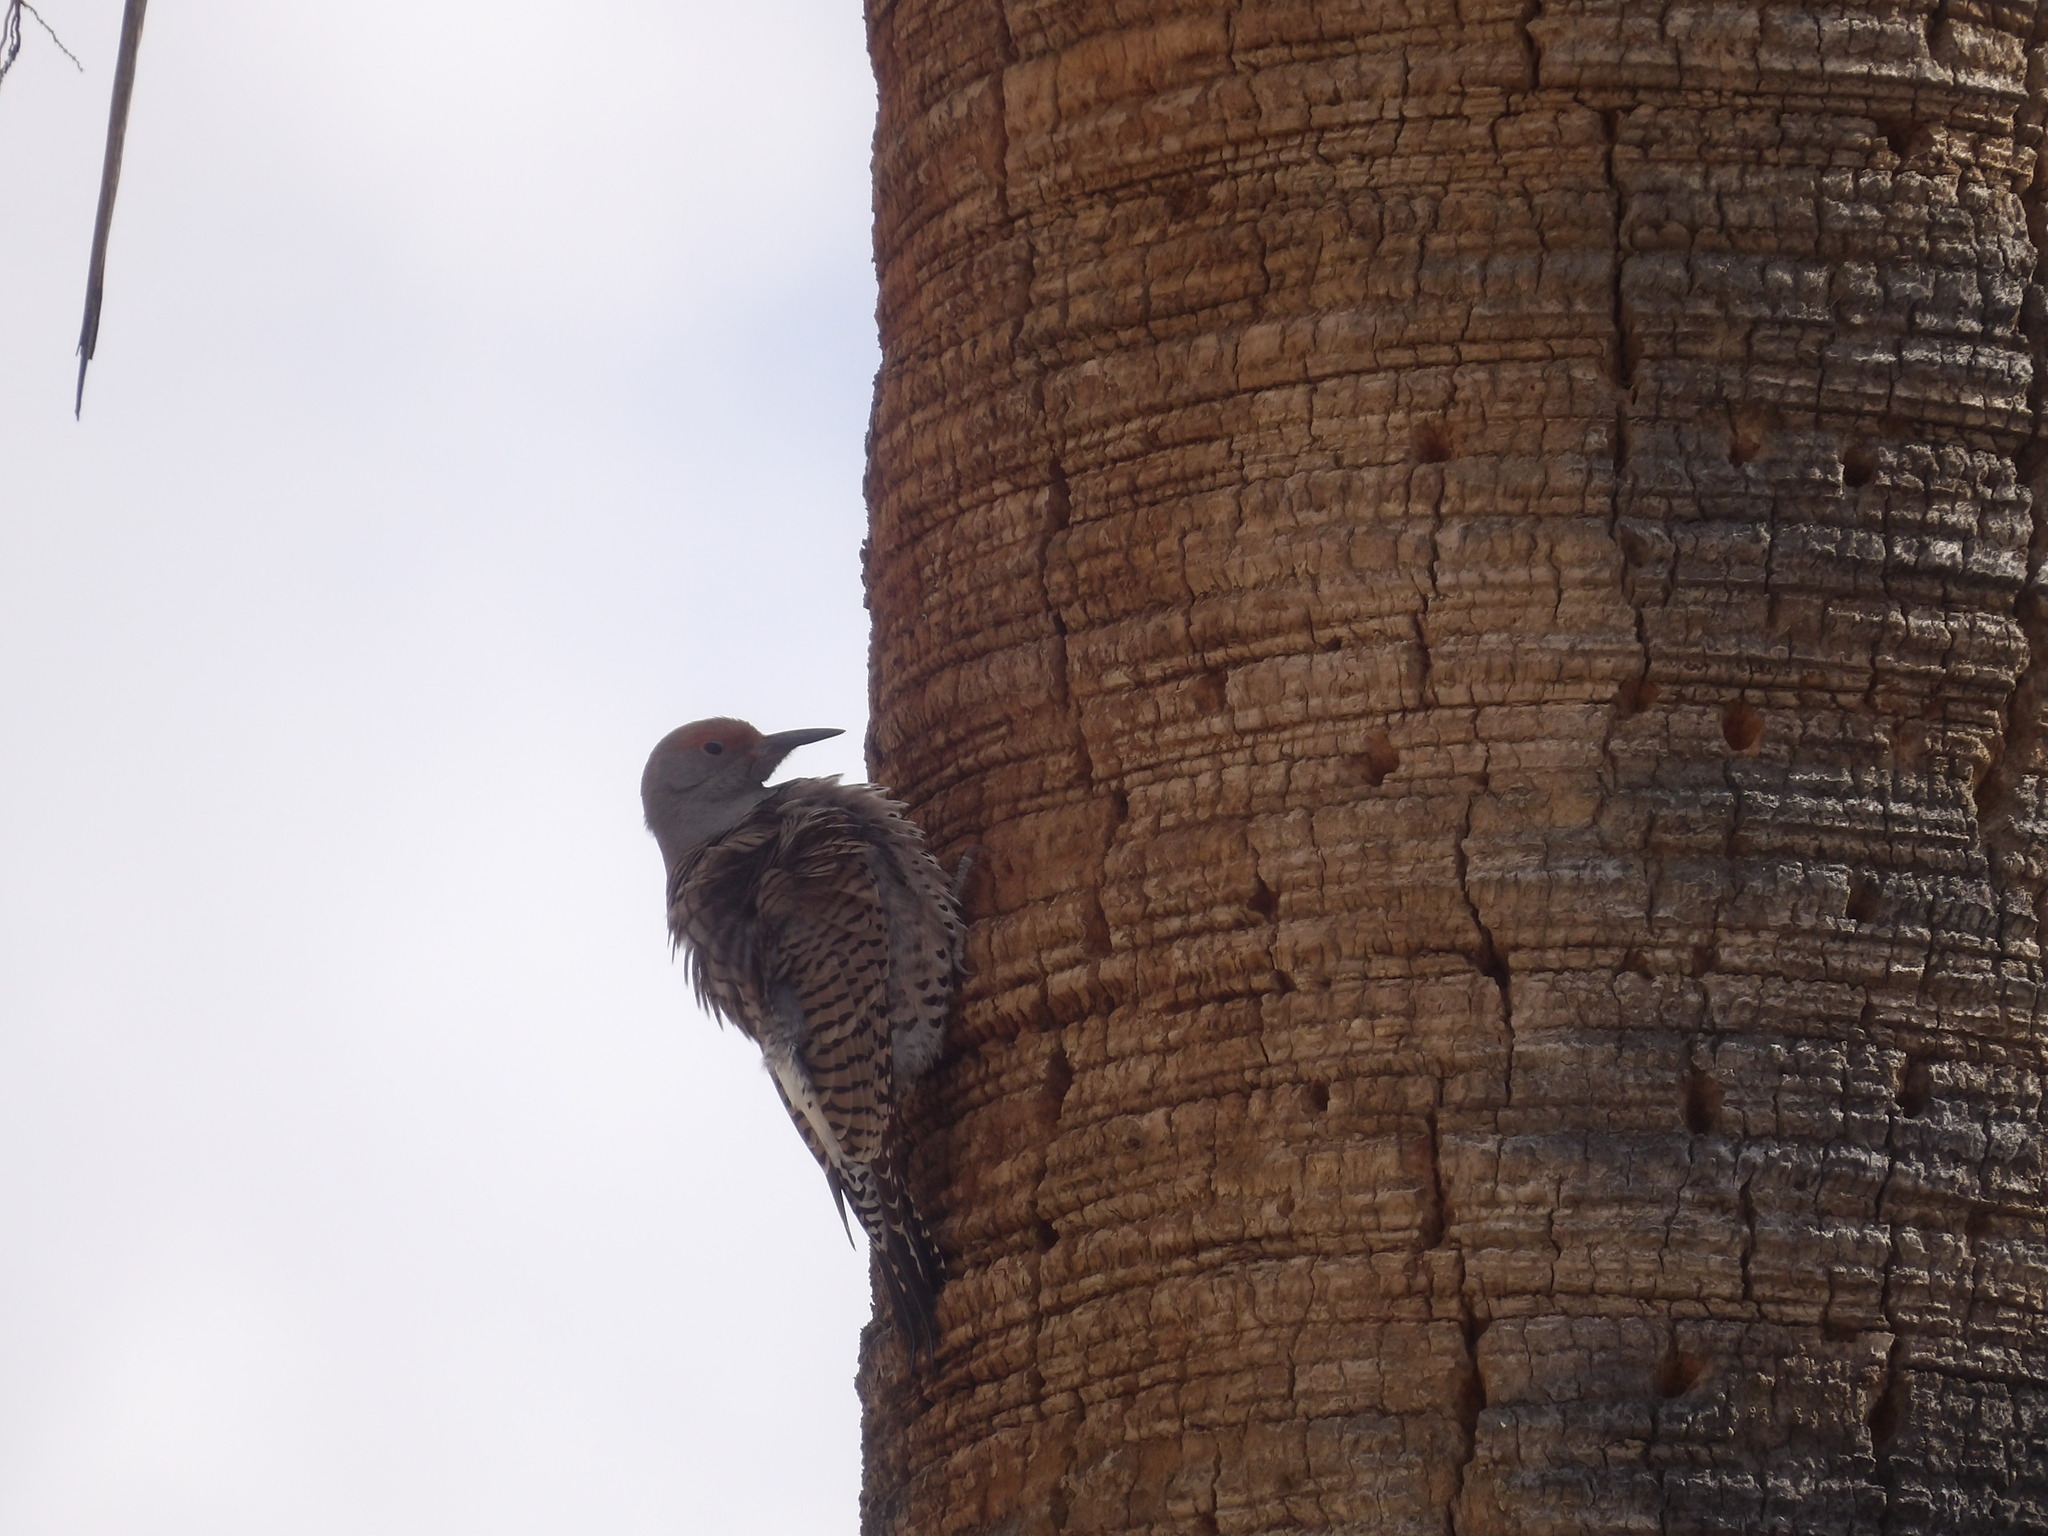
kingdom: Animalia
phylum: Chordata
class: Aves
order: Piciformes
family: Picidae
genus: Colaptes
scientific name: Colaptes auratus
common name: Northern flicker
